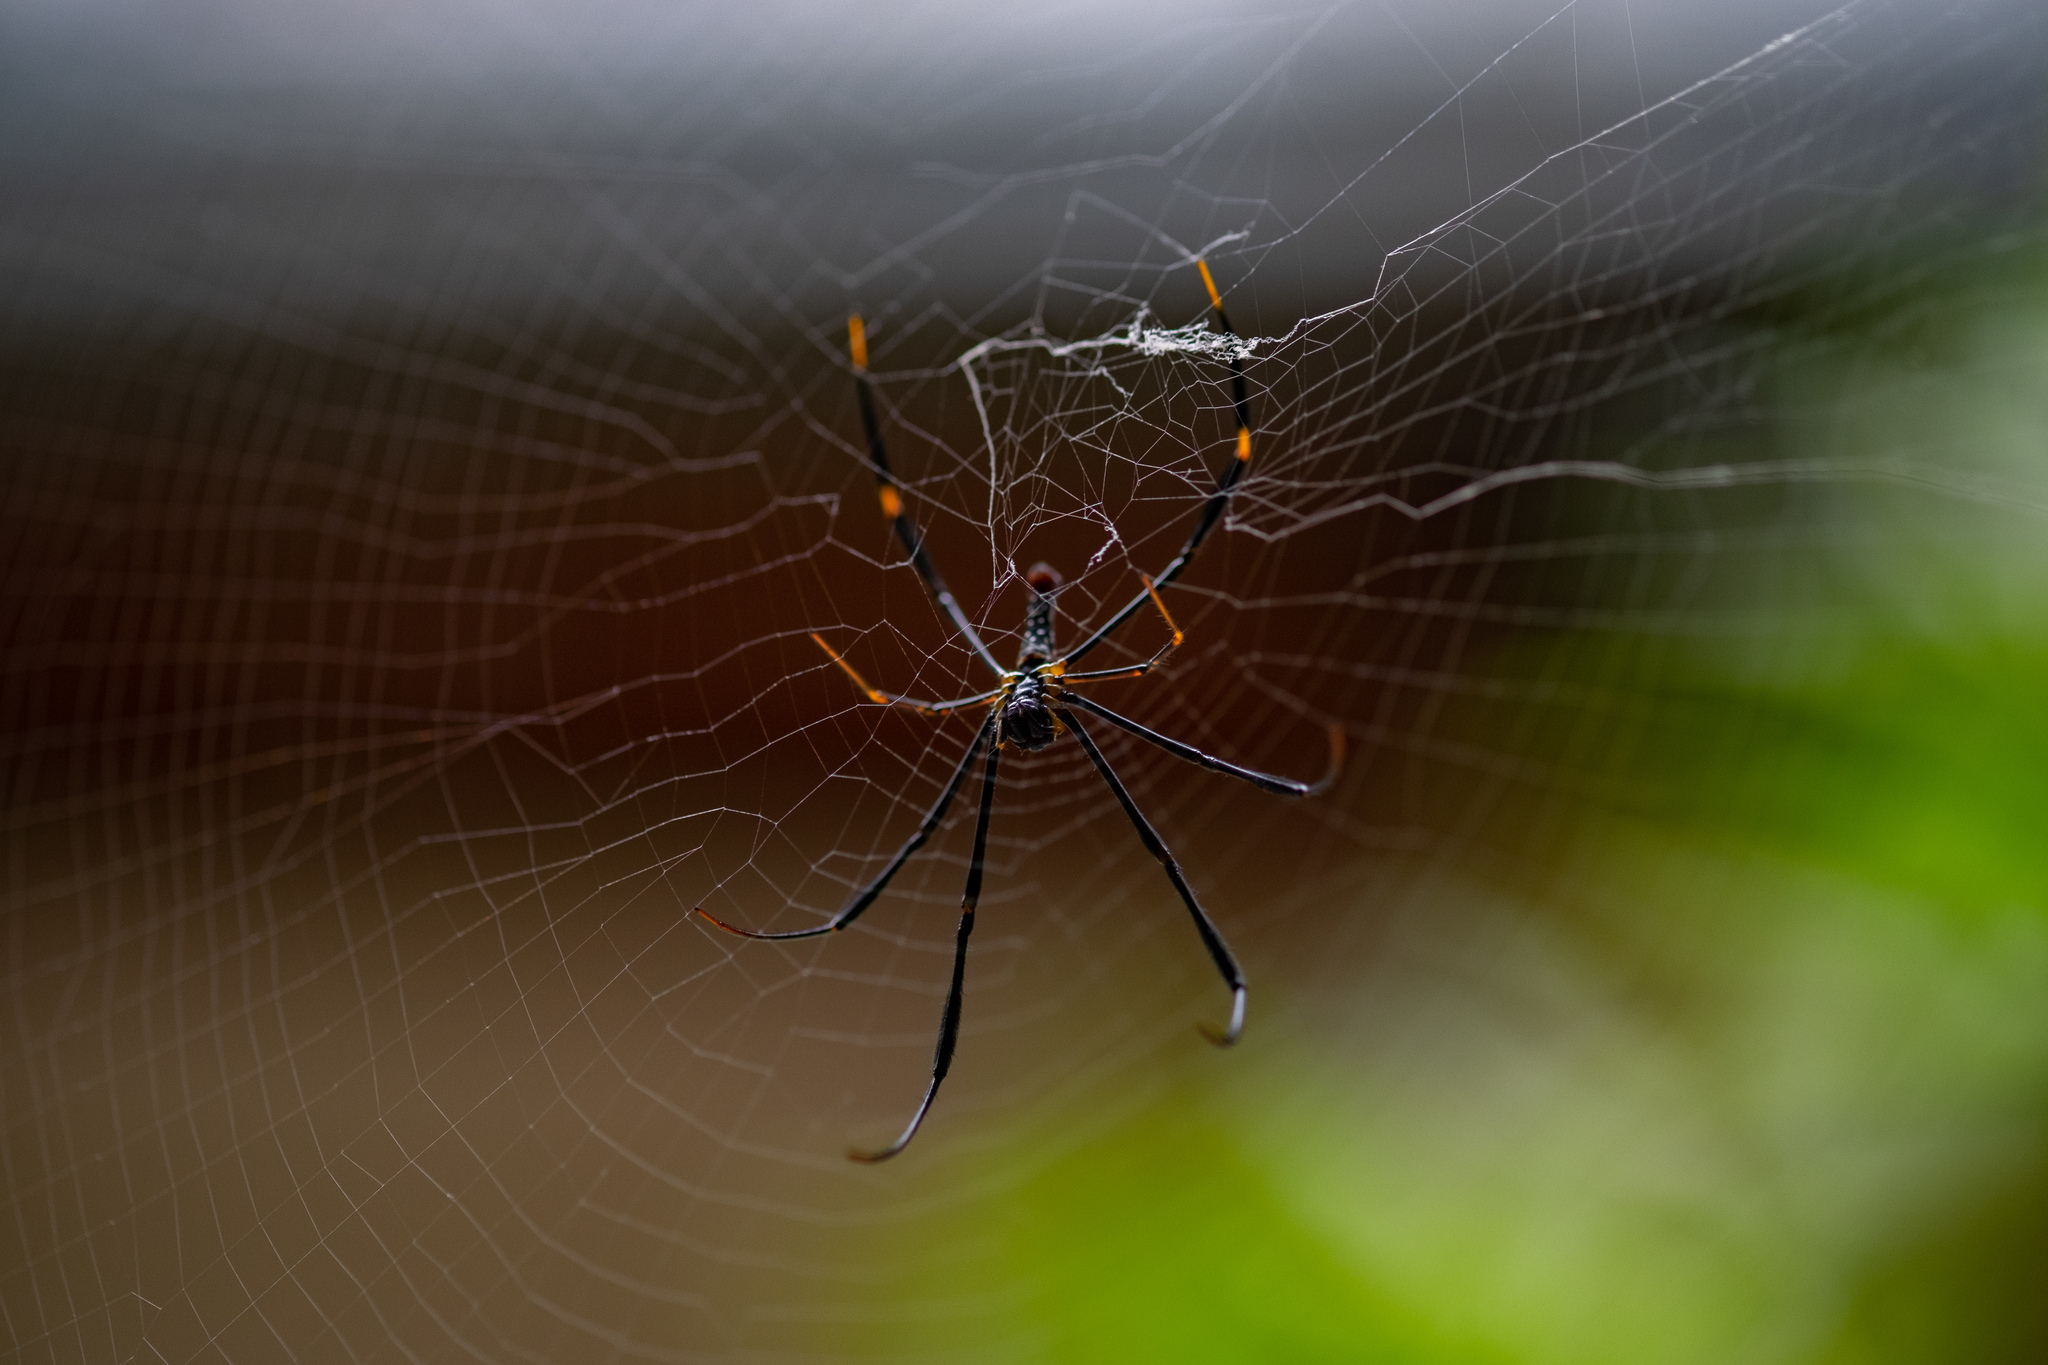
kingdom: Animalia
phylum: Arthropoda
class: Arachnida
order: Araneae
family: Araneidae
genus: Nephila
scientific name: Nephila pilipes
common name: Giant golden orb weaver
